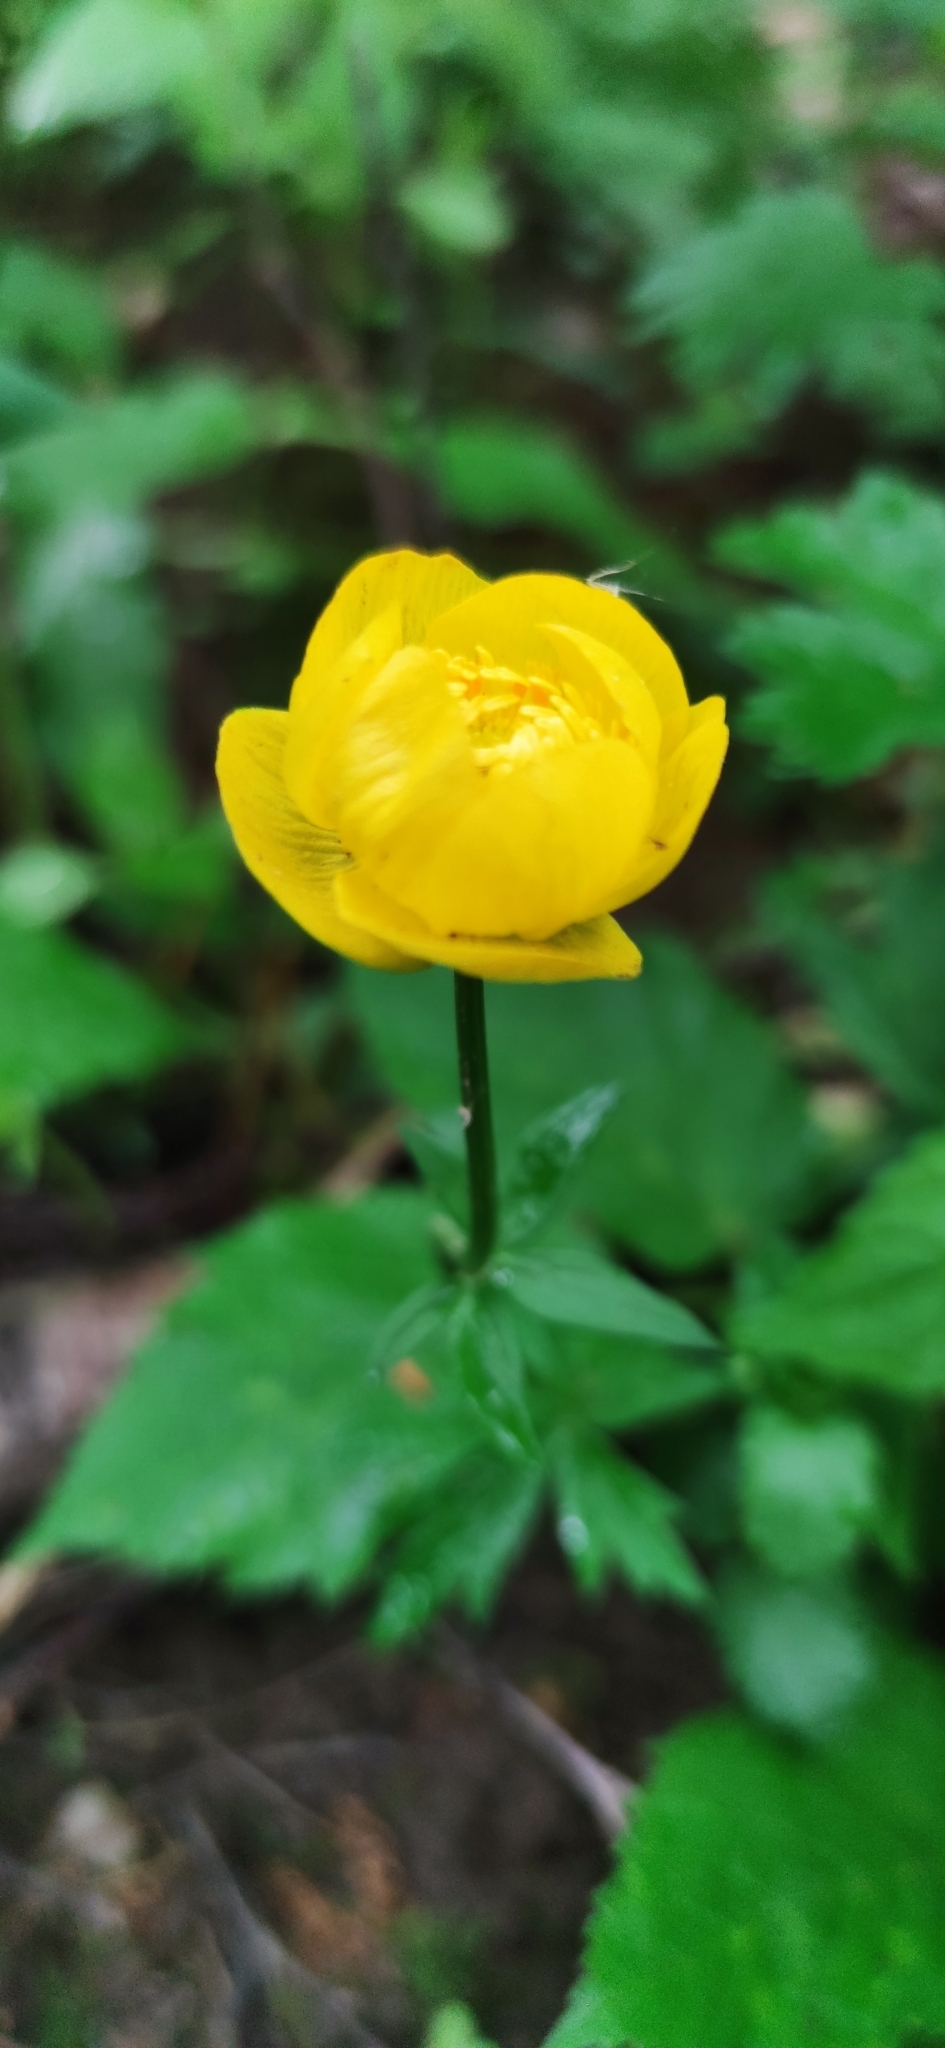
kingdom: Plantae
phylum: Tracheophyta
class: Magnoliopsida
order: Ranunculales
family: Ranunculaceae
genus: Trollius
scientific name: Trollius europaeus
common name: European globeflower
